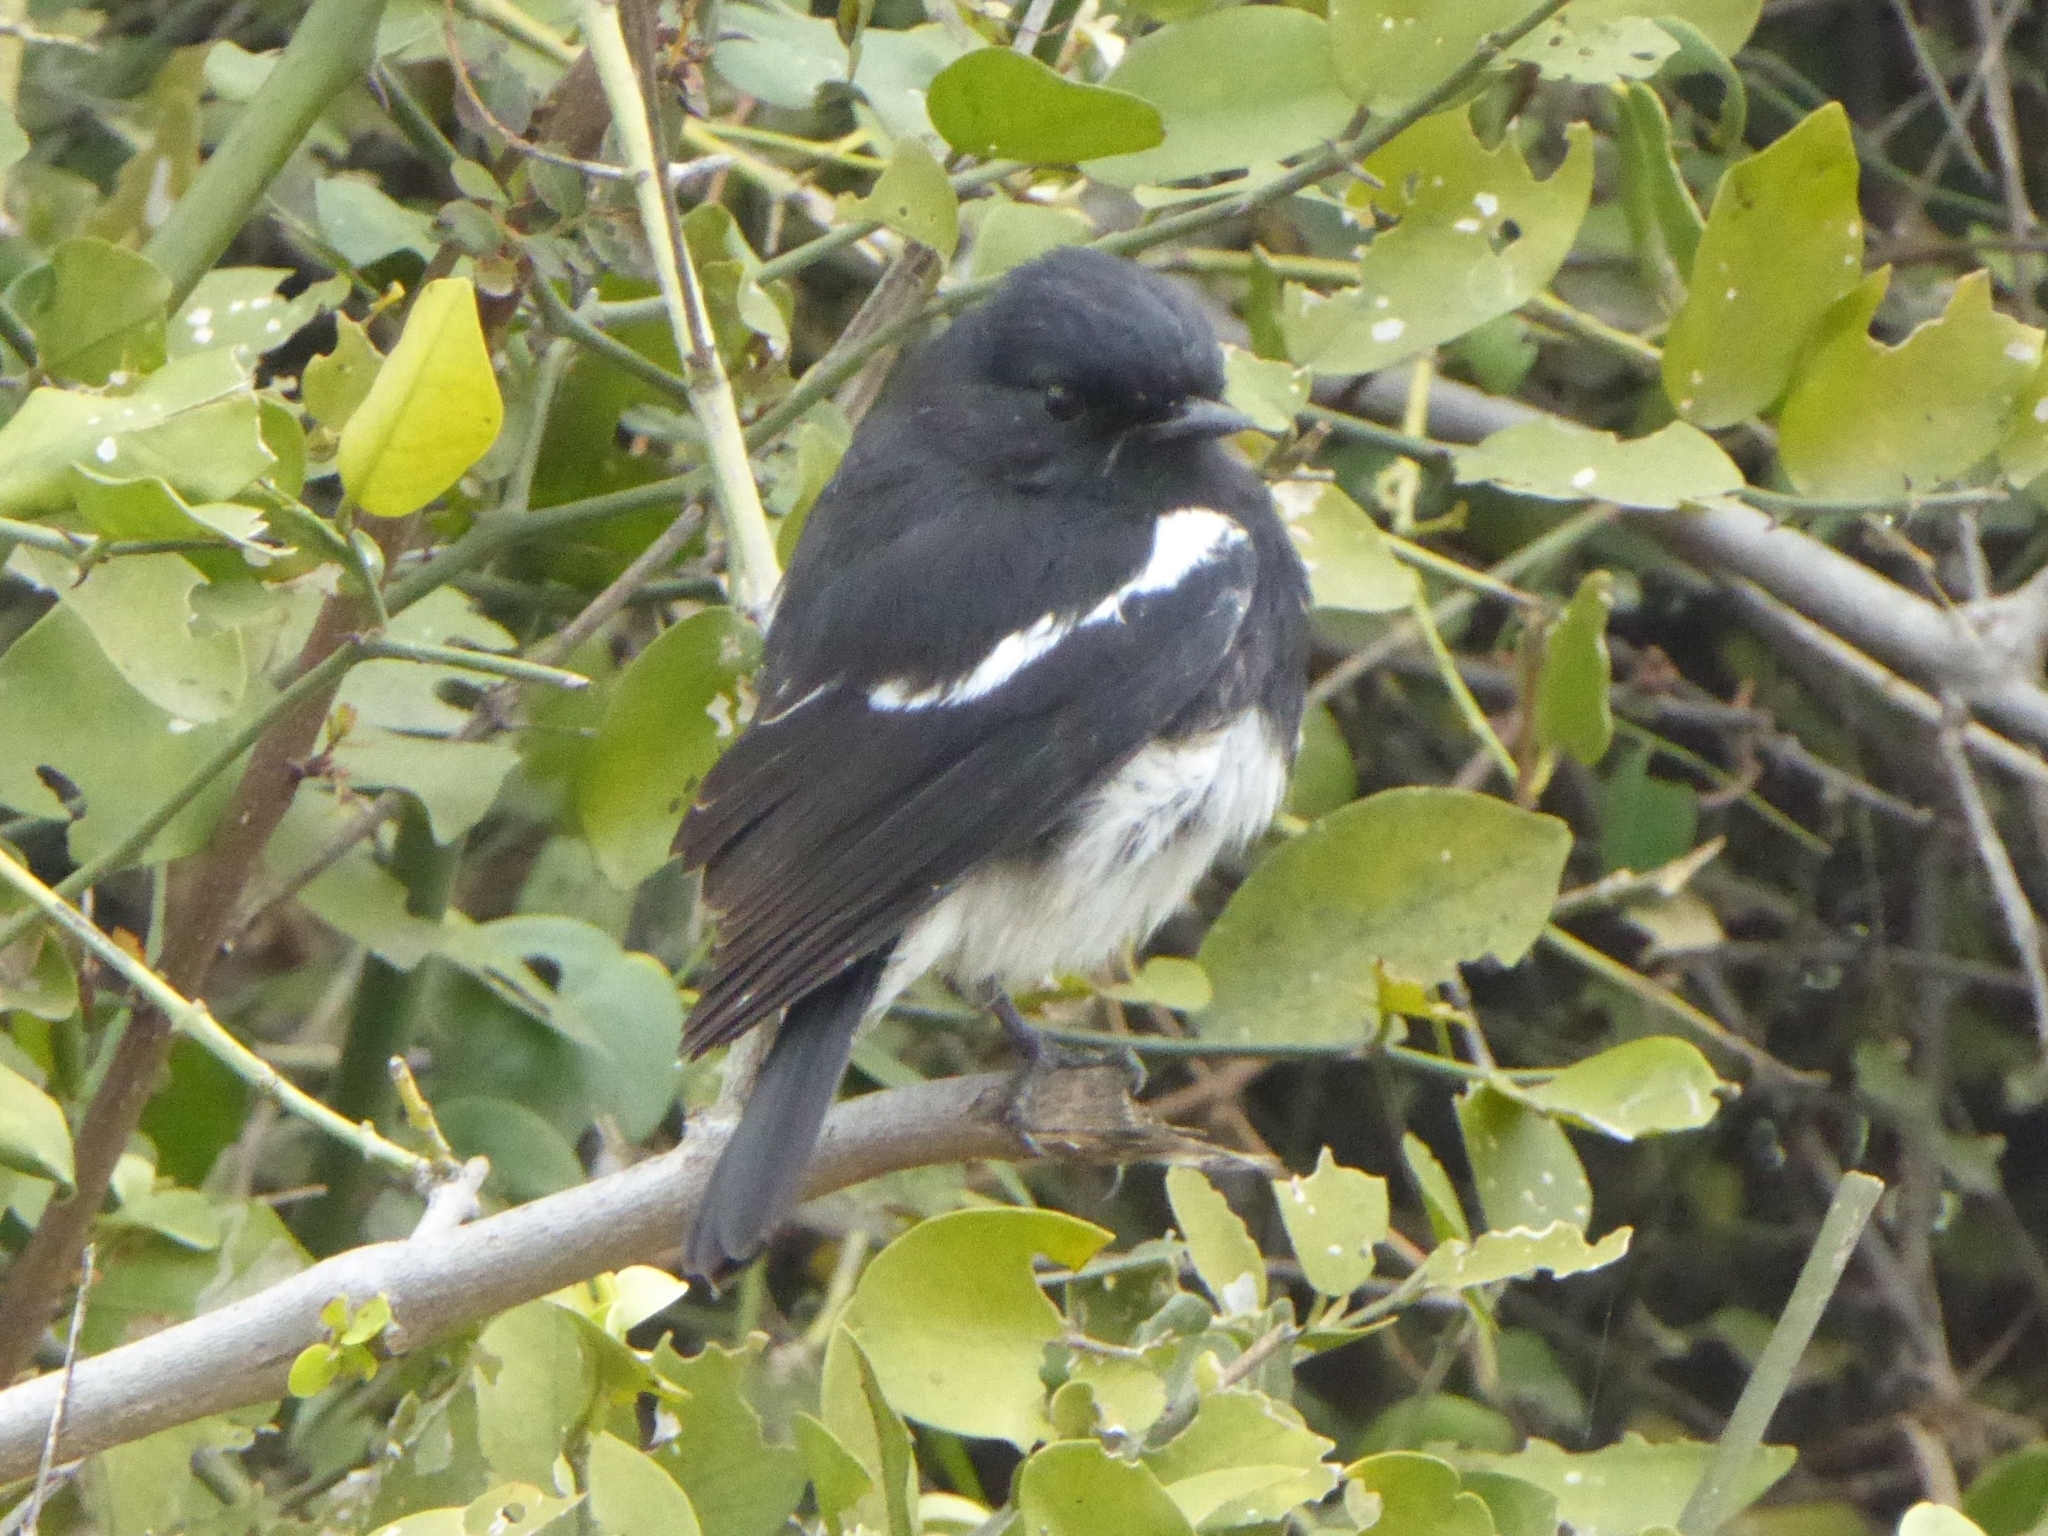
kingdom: Animalia
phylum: Chordata
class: Aves
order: Passeriformes
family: Muscicapidae
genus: Saxicola
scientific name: Saxicola caprata
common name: Pied bush chat
